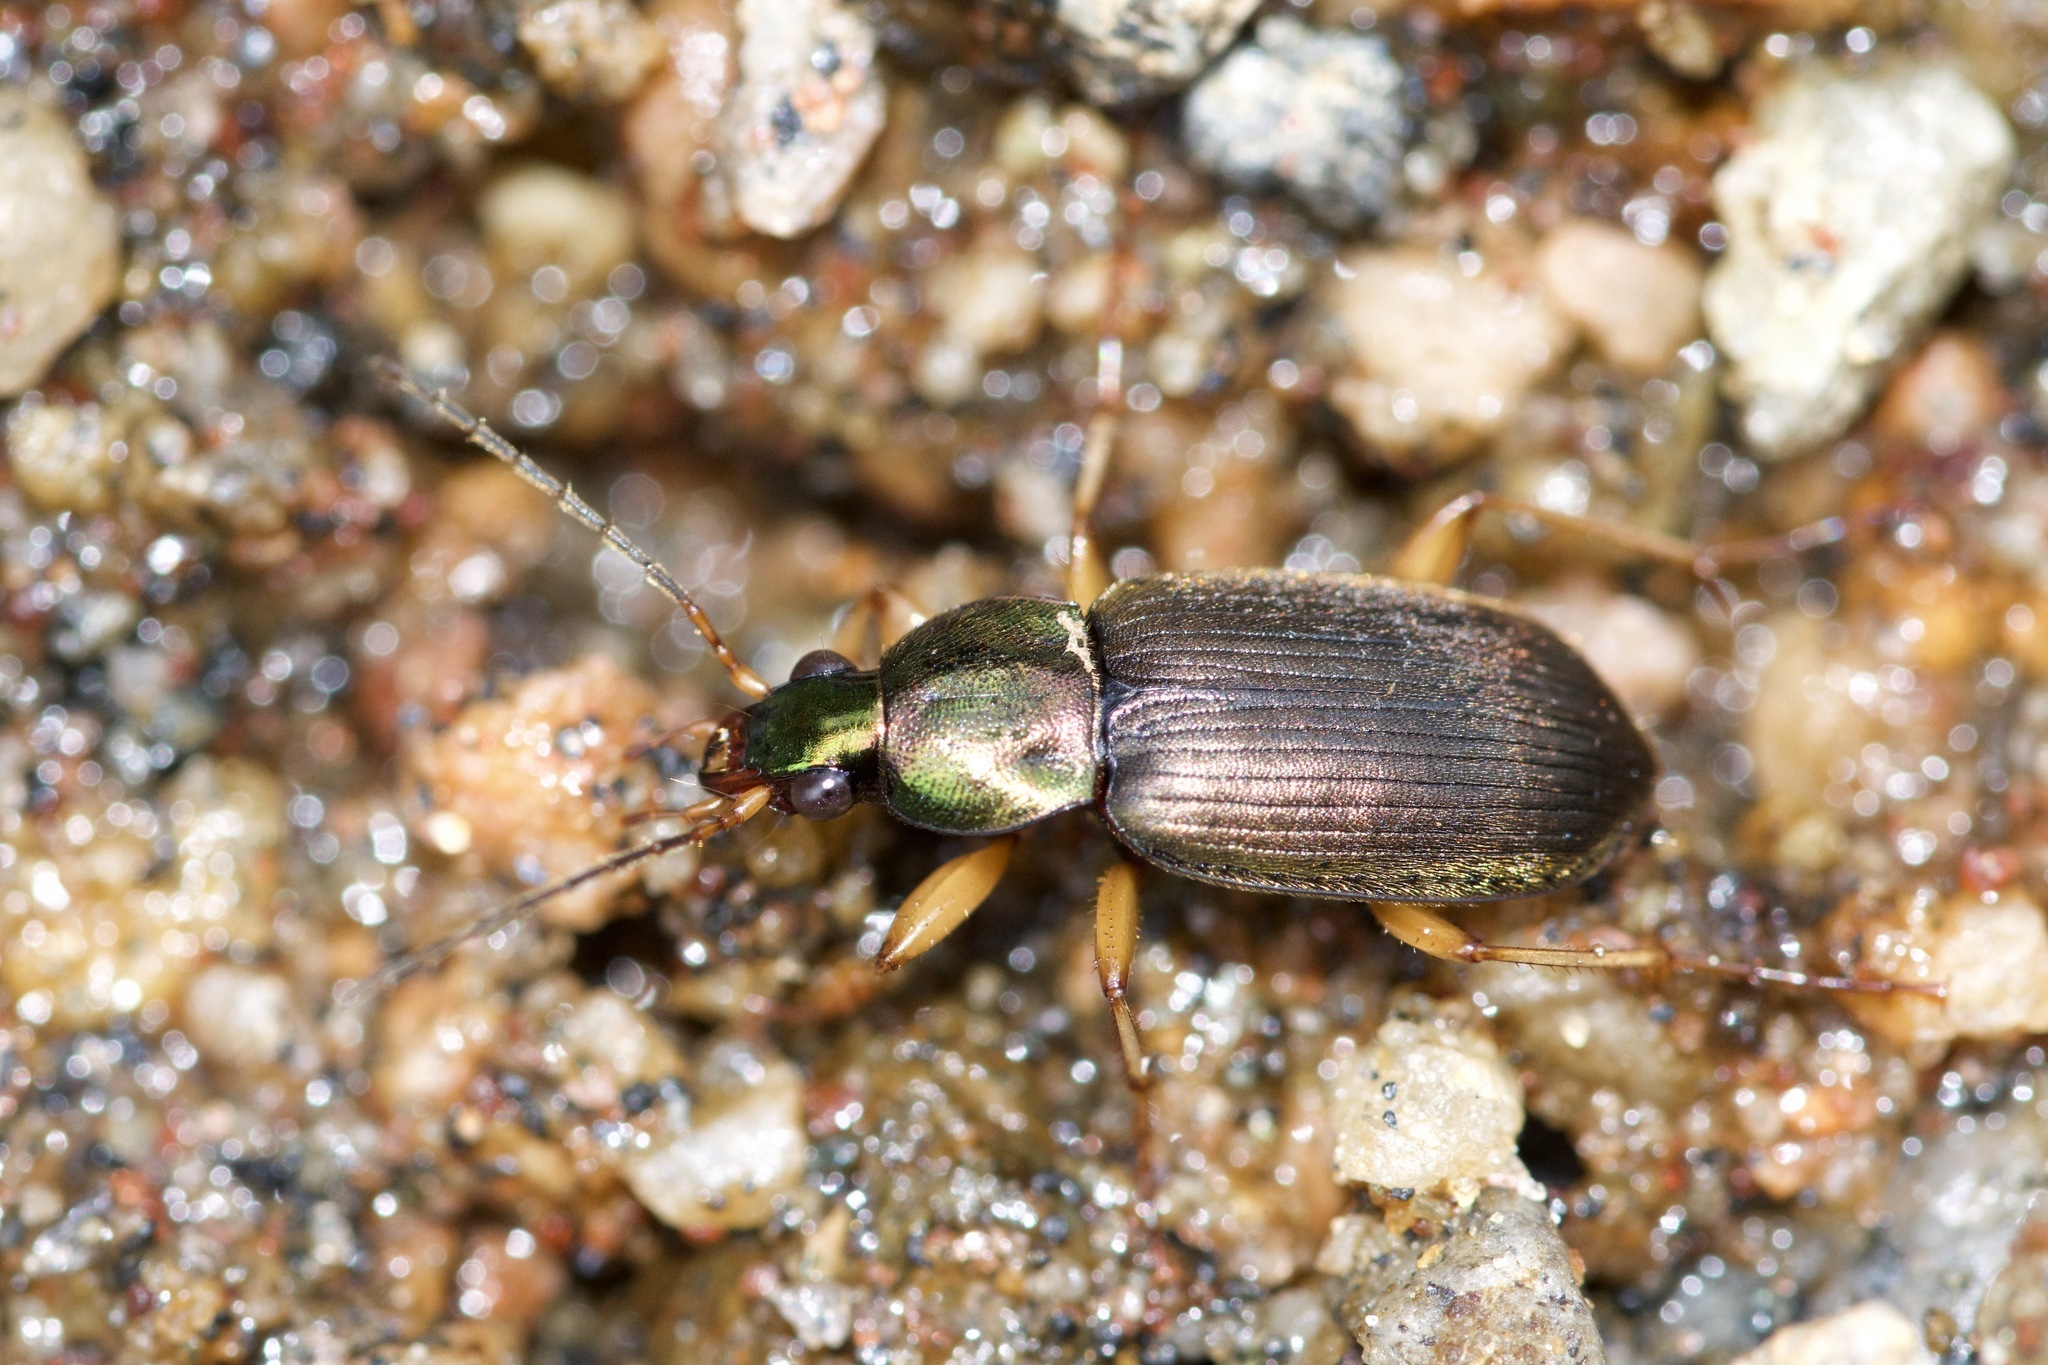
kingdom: Animalia
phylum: Arthropoda
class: Insecta
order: Coleoptera
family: Carabidae
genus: Chlaenius
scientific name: Chlaenius tricolor
